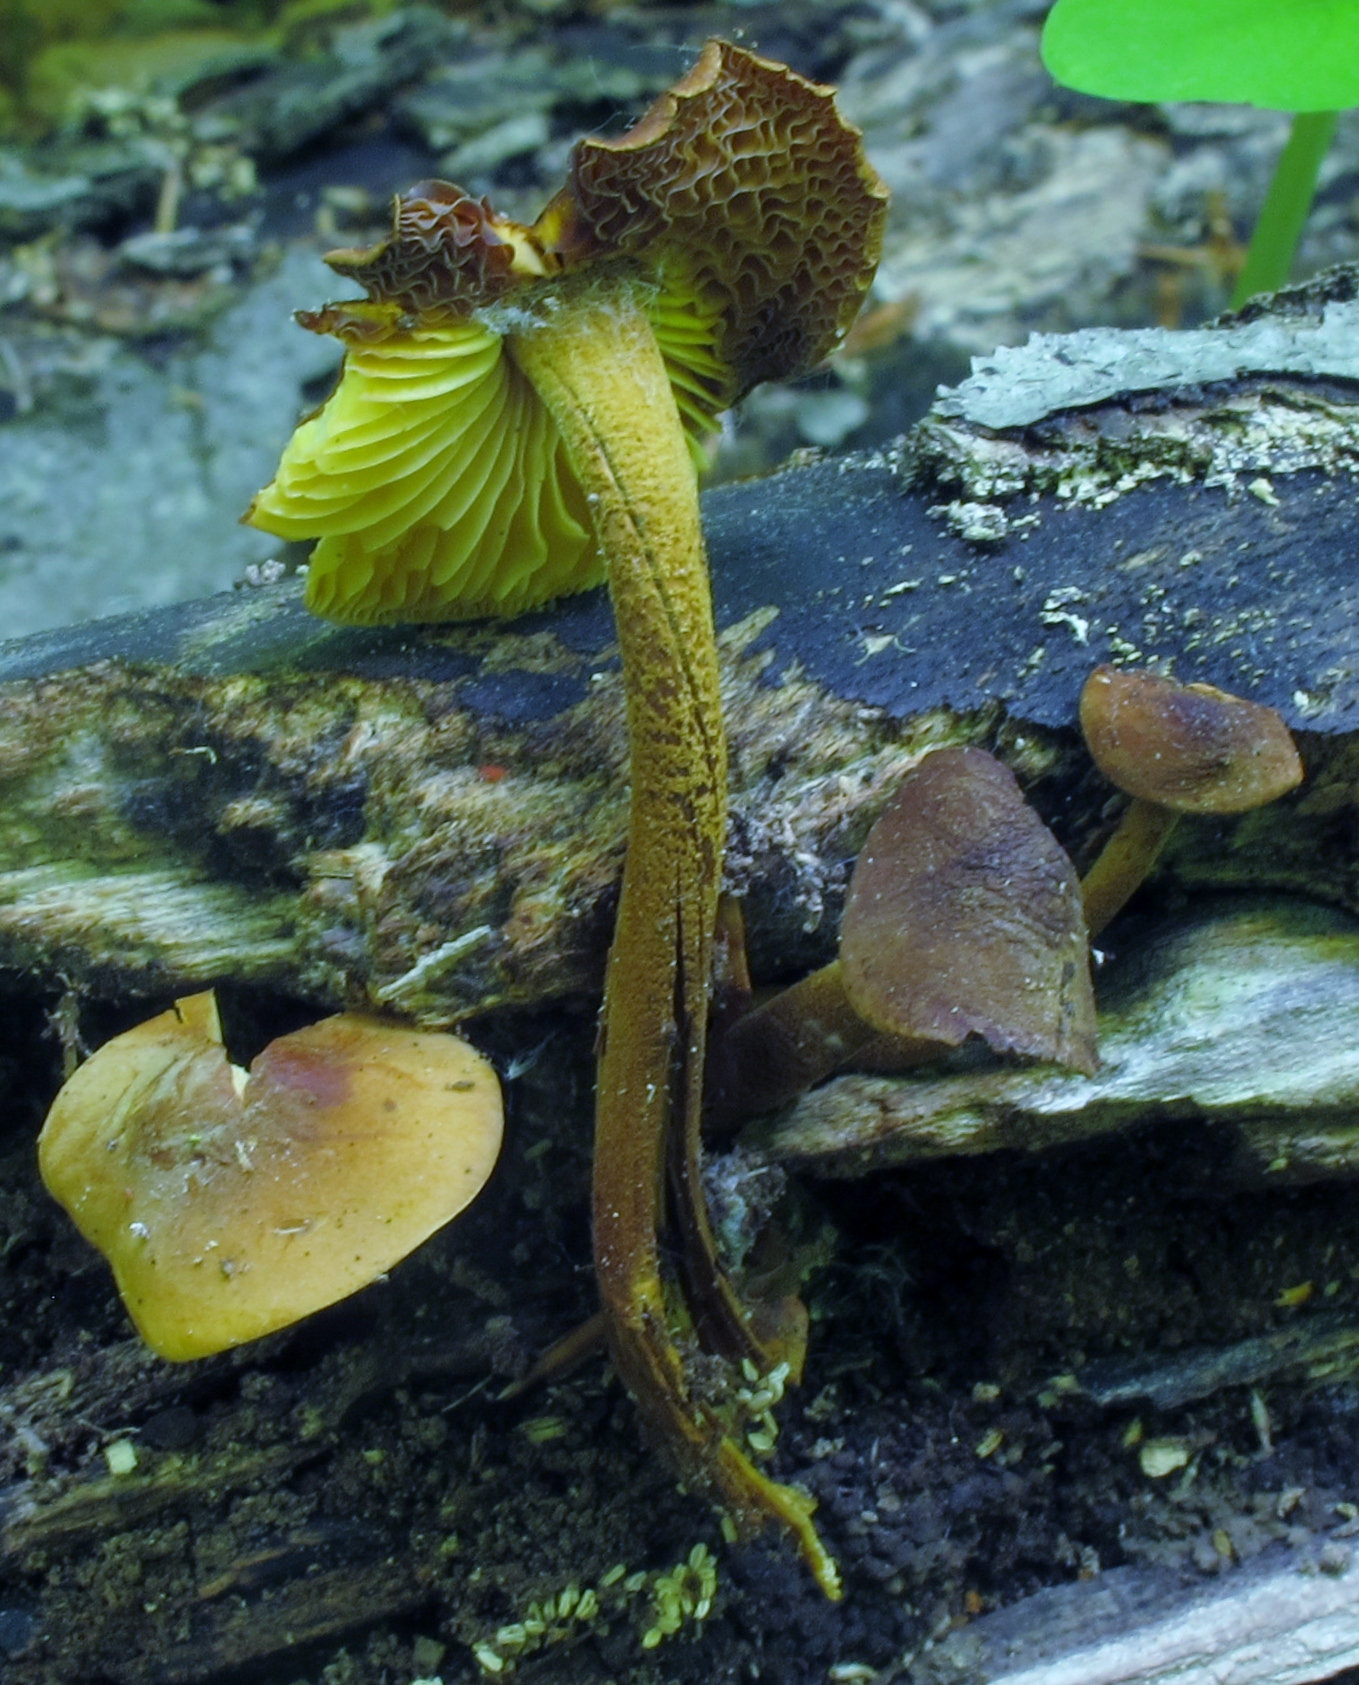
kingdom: Fungi
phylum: Basidiomycota
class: Agaricomycetes
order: Agaricales
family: Mycenaceae
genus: Xeromphalina
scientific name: Xeromphalina tenuipes
